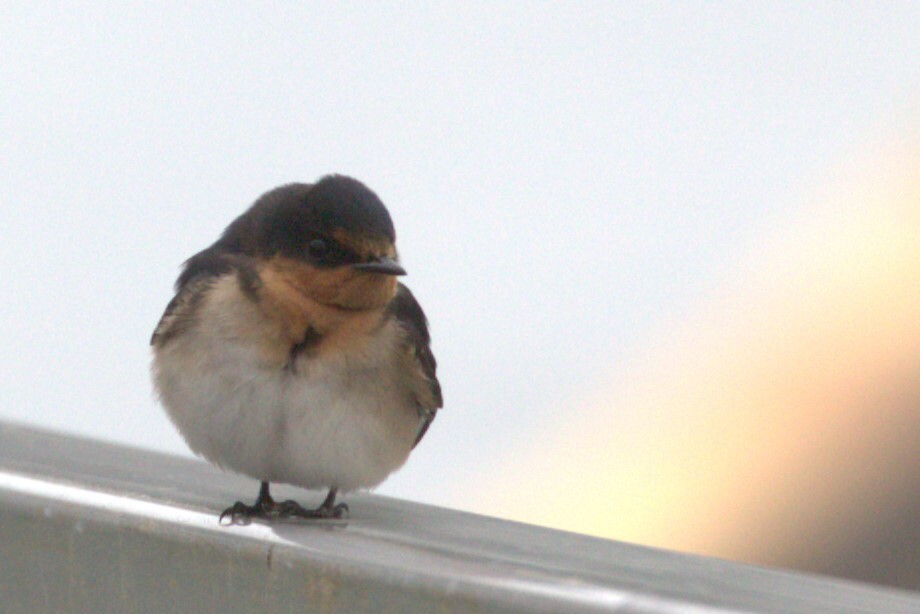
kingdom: Animalia
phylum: Chordata
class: Aves
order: Passeriformes
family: Hirundinidae
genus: Hirundo
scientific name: Hirundo neoxena
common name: Welcome swallow
